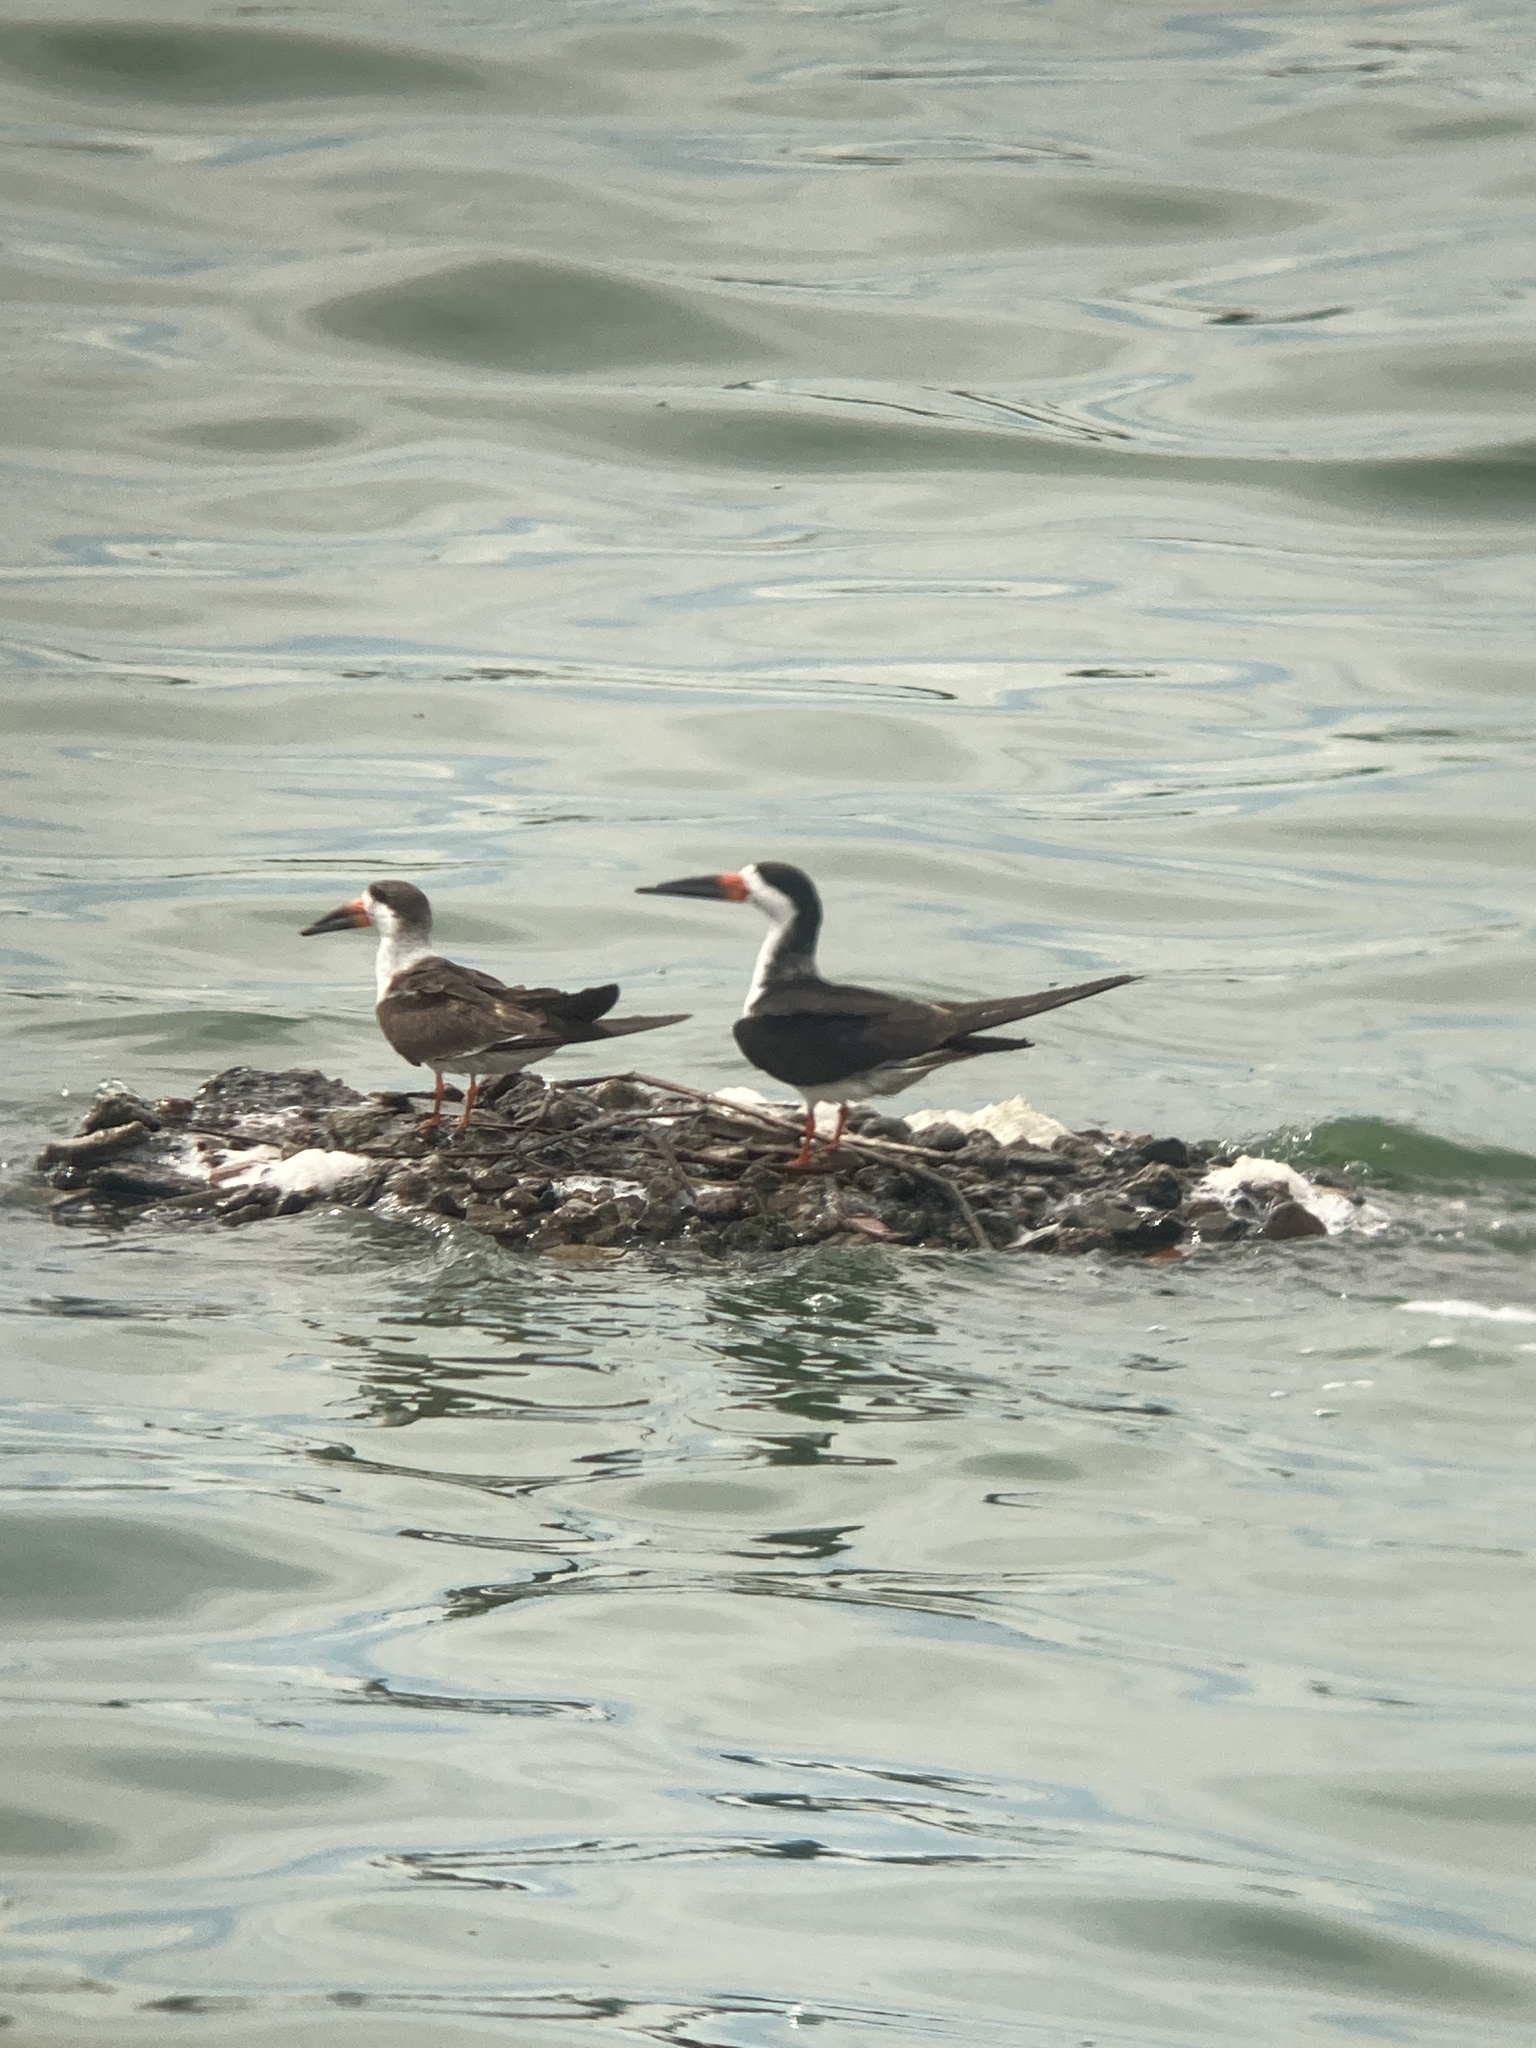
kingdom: Animalia
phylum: Chordata
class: Aves
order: Charadriiformes
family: Laridae
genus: Rynchops
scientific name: Rynchops niger
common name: Black skimmer
